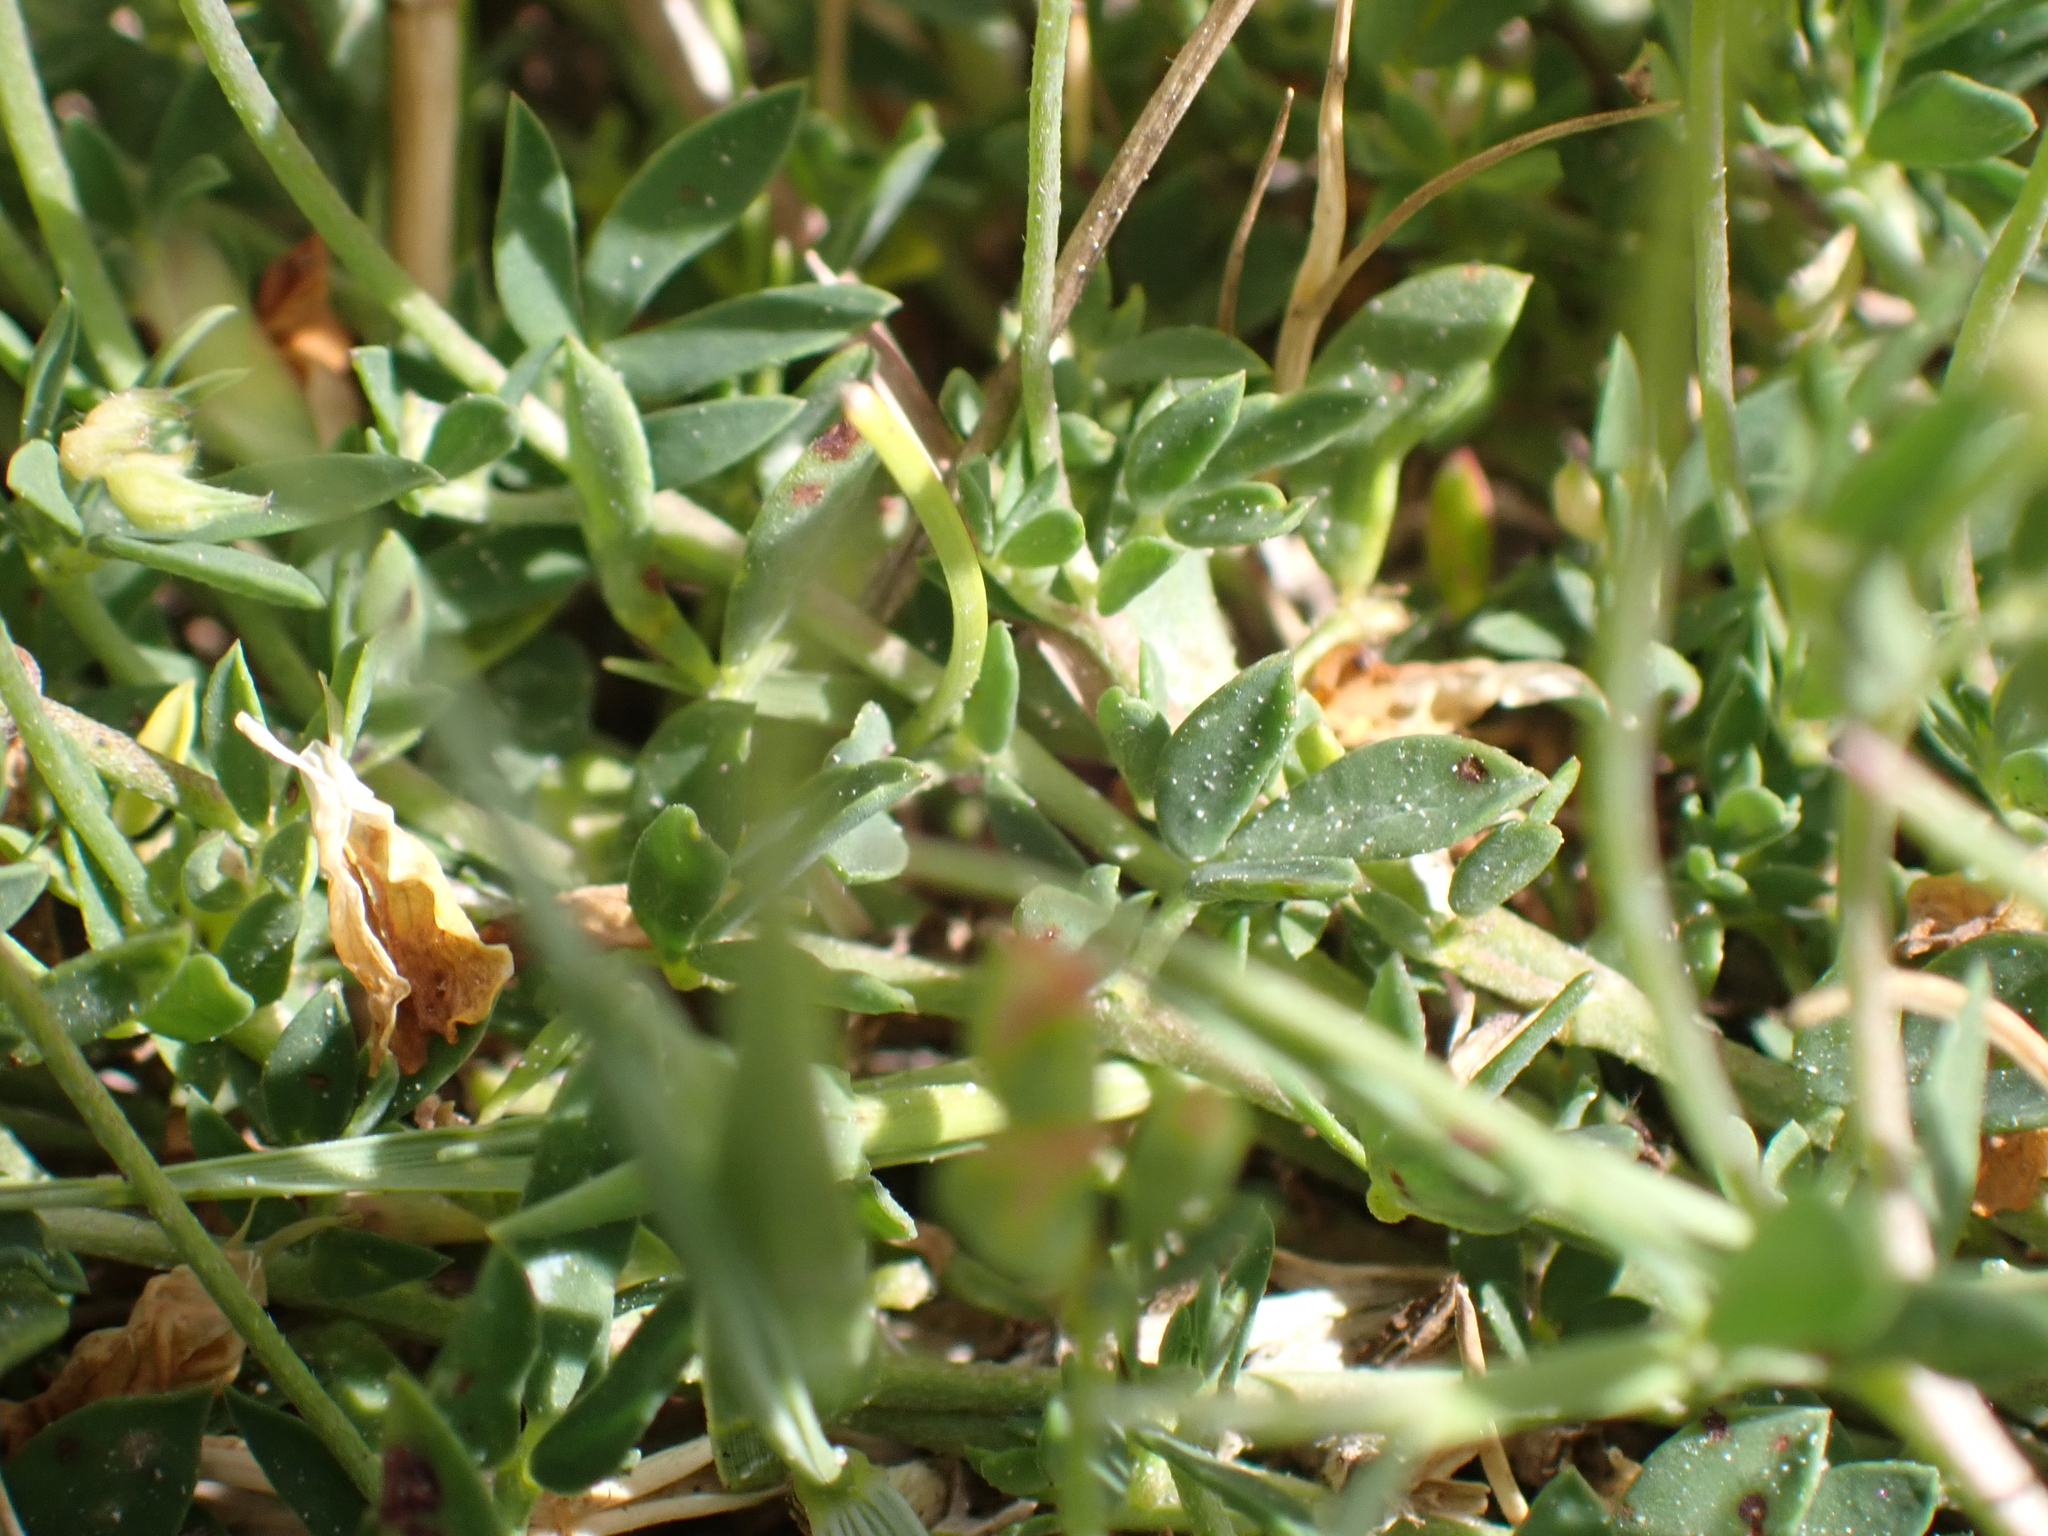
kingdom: Plantae
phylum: Tracheophyta
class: Magnoliopsida
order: Fabales
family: Fabaceae
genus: Lotus
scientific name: Lotus corniculatus
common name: Common bird's-foot-trefoil
